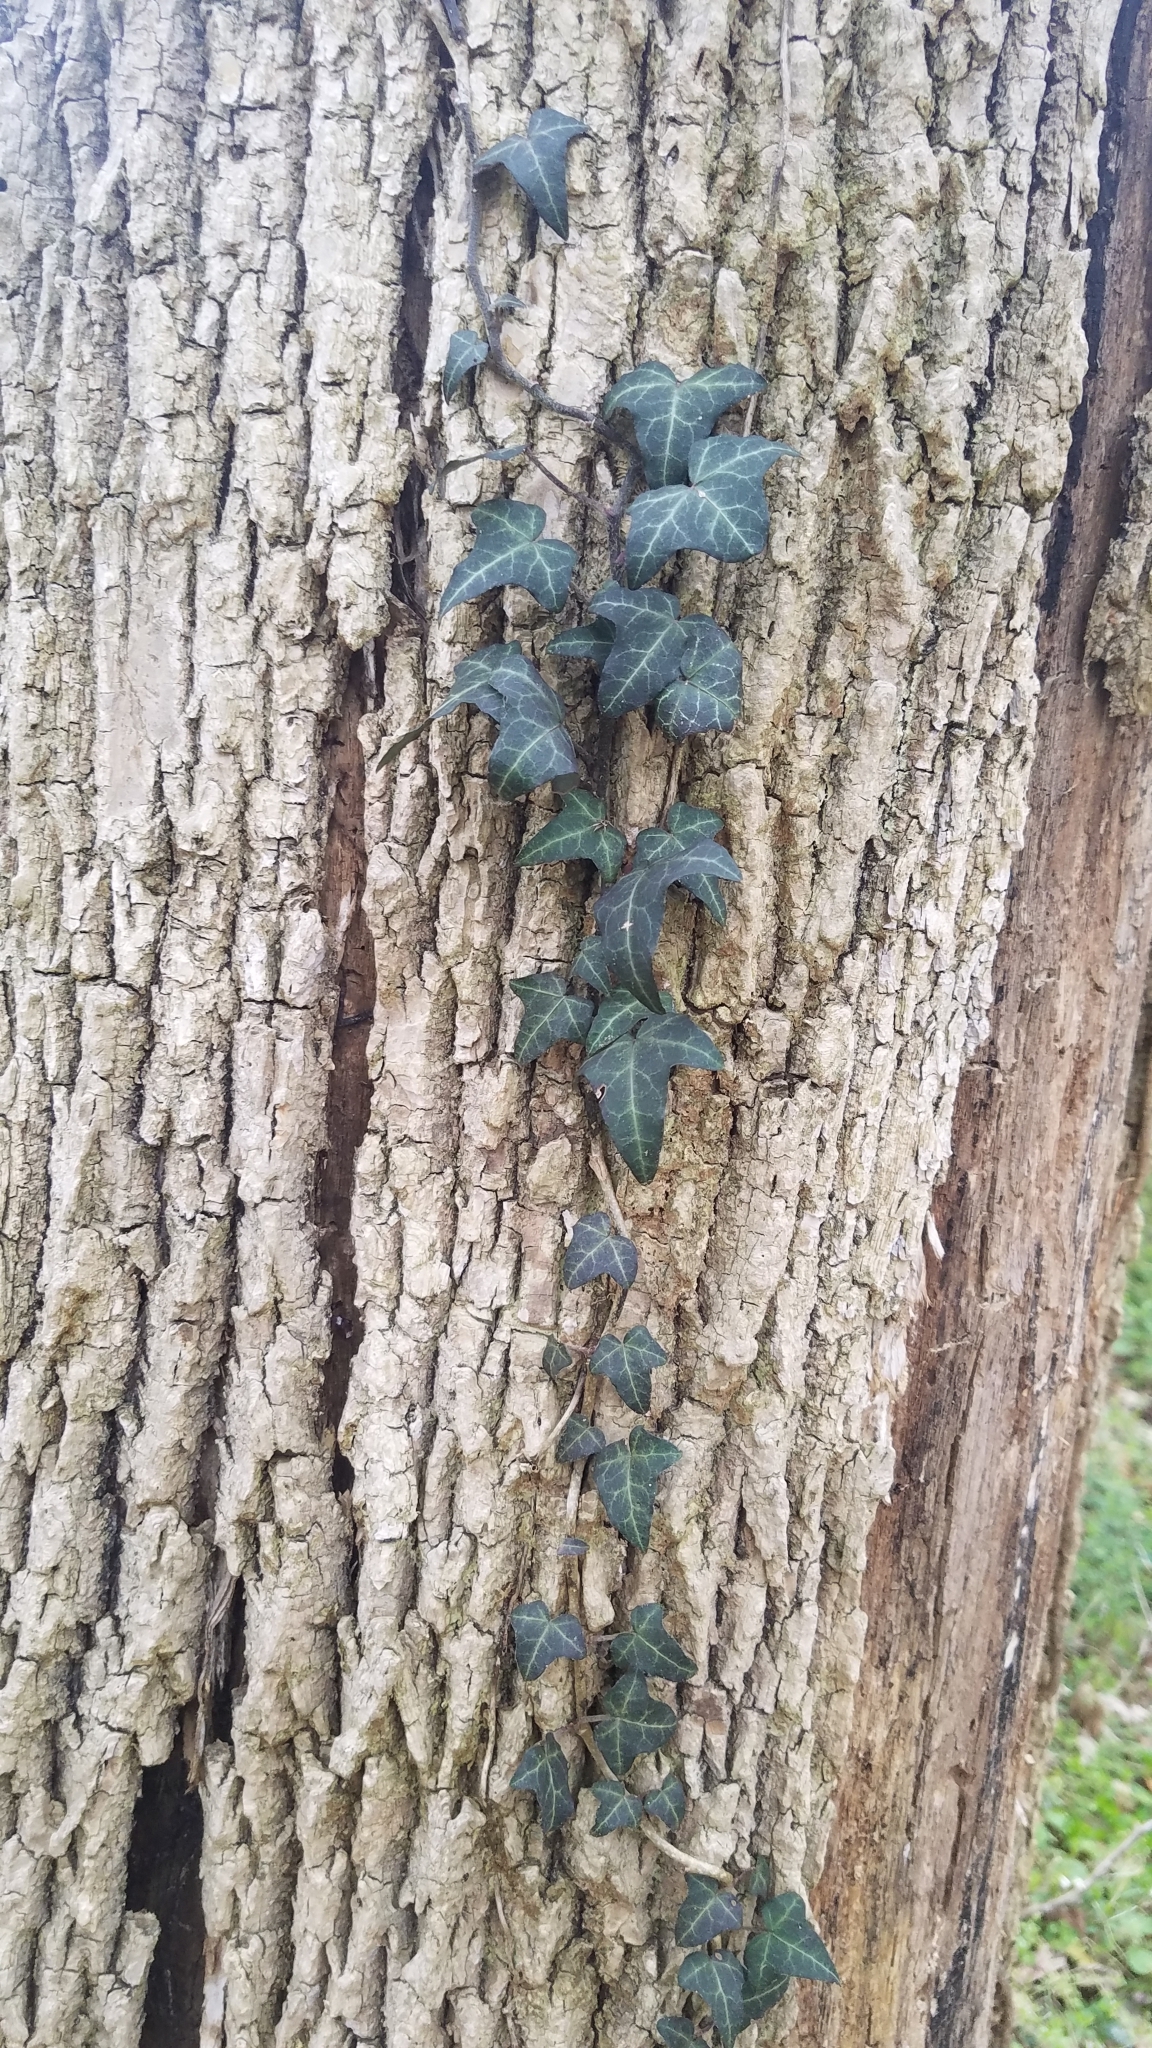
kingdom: Plantae
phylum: Tracheophyta
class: Magnoliopsida
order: Apiales
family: Araliaceae
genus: Hedera
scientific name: Hedera helix
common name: Ivy
